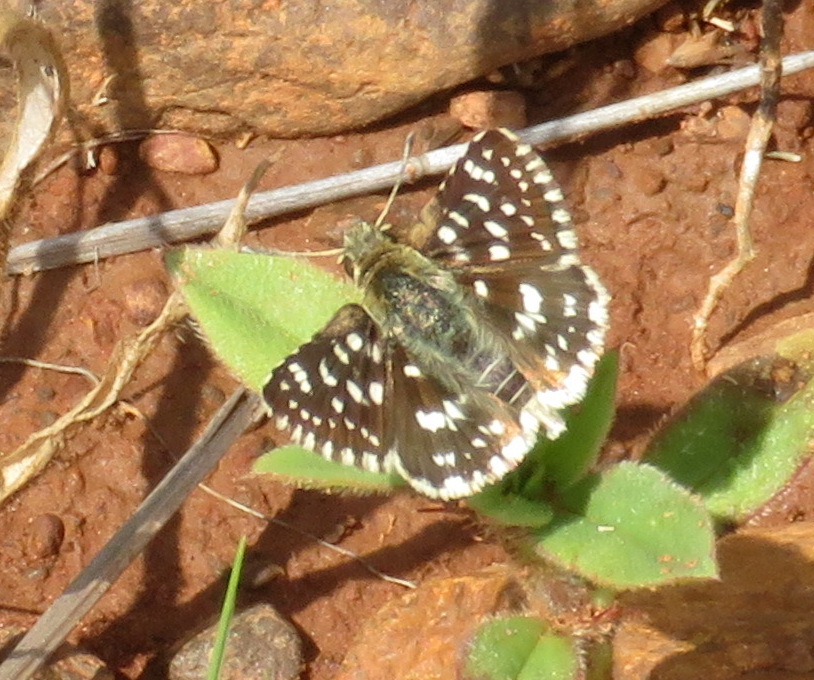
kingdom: Animalia
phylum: Arthropoda
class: Insecta
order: Lepidoptera
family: Hesperiidae
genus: Spialia
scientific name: Spialia mafa
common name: Mafa sandman
